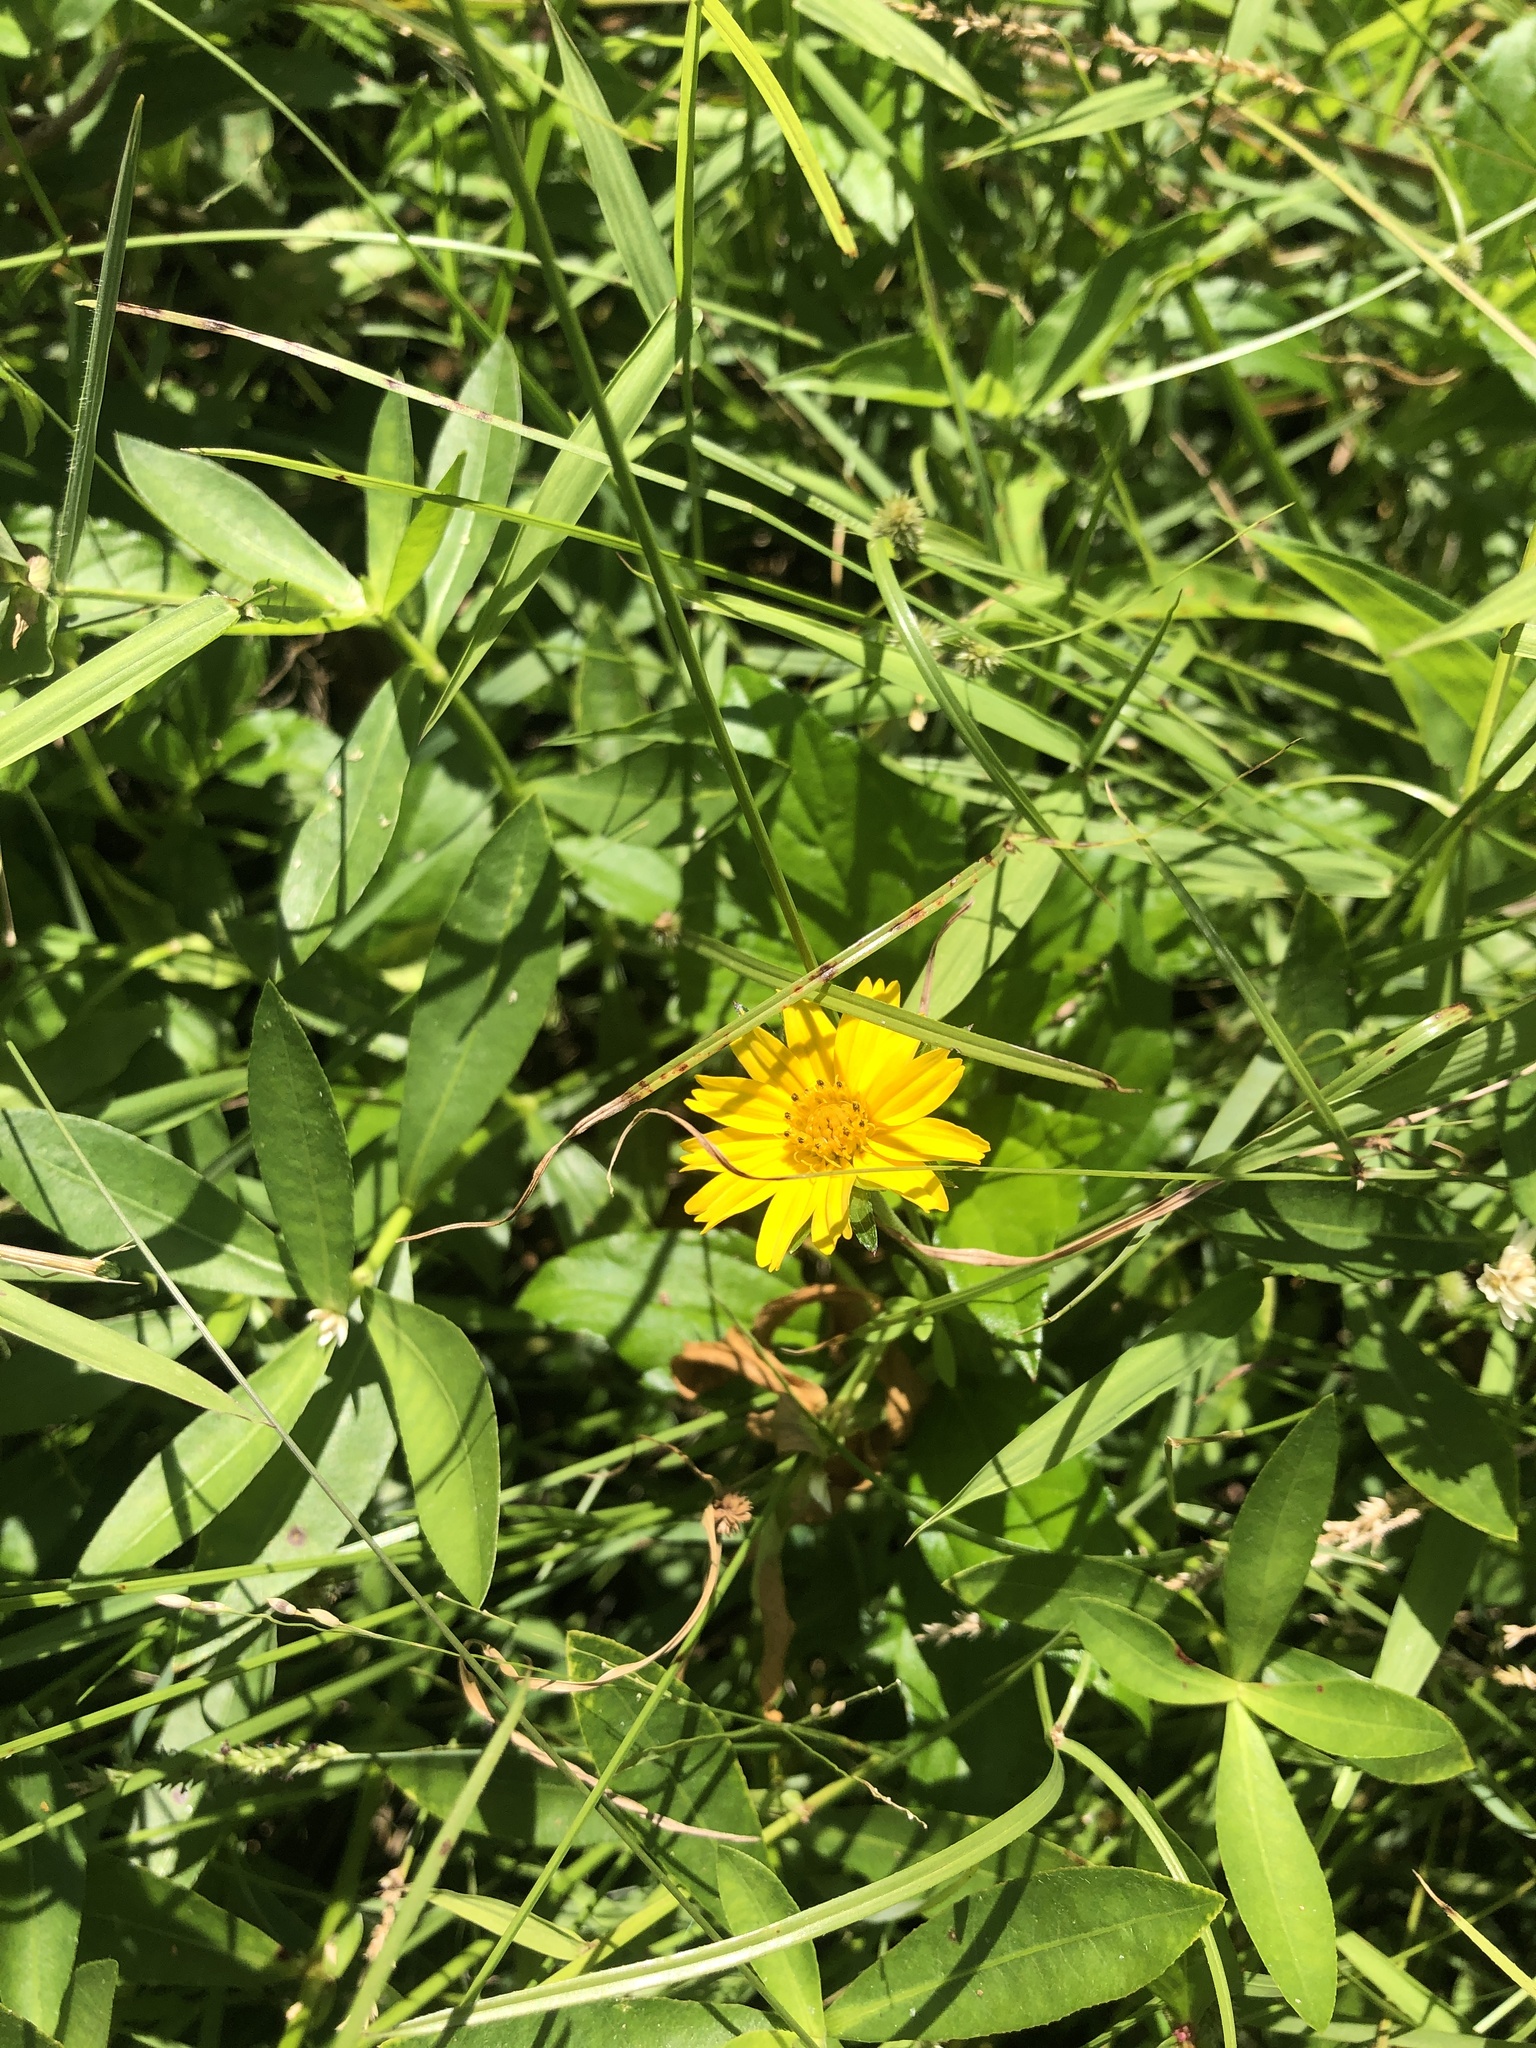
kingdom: Plantae
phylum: Tracheophyta
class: Magnoliopsida
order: Asterales
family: Asteraceae
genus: Sphagneticola
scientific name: Sphagneticola trilobata
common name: Bay biscayne creeping-oxeye
